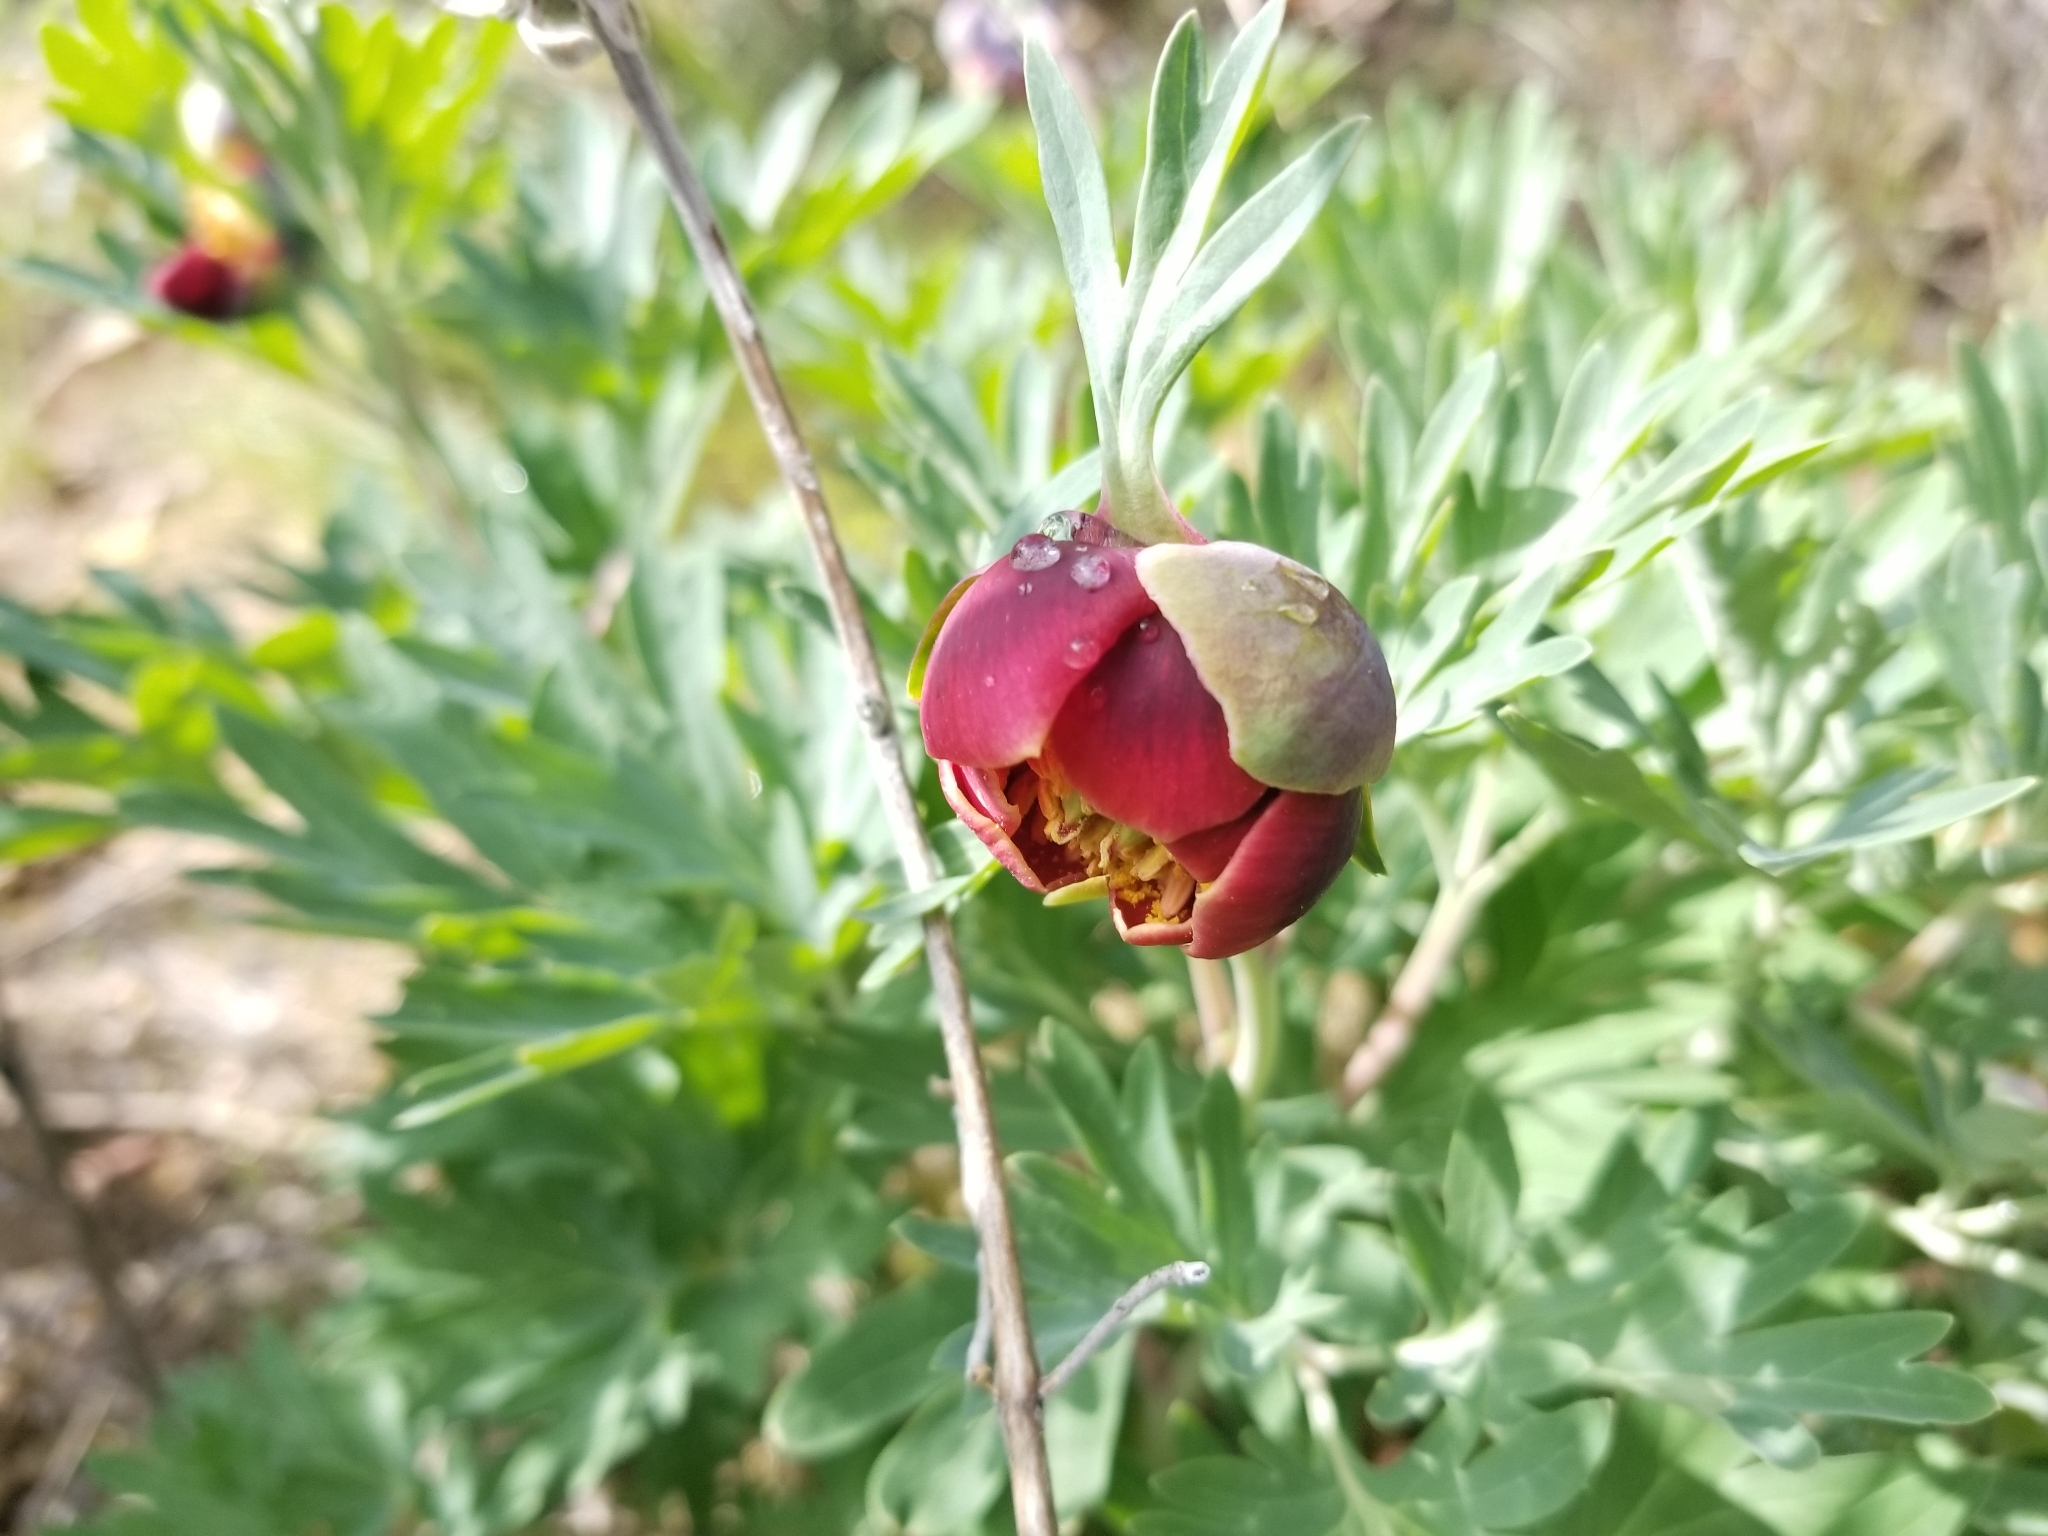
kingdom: Plantae
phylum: Tracheophyta
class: Magnoliopsida
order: Saxifragales
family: Paeoniaceae
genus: Paeonia
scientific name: Paeonia californica
